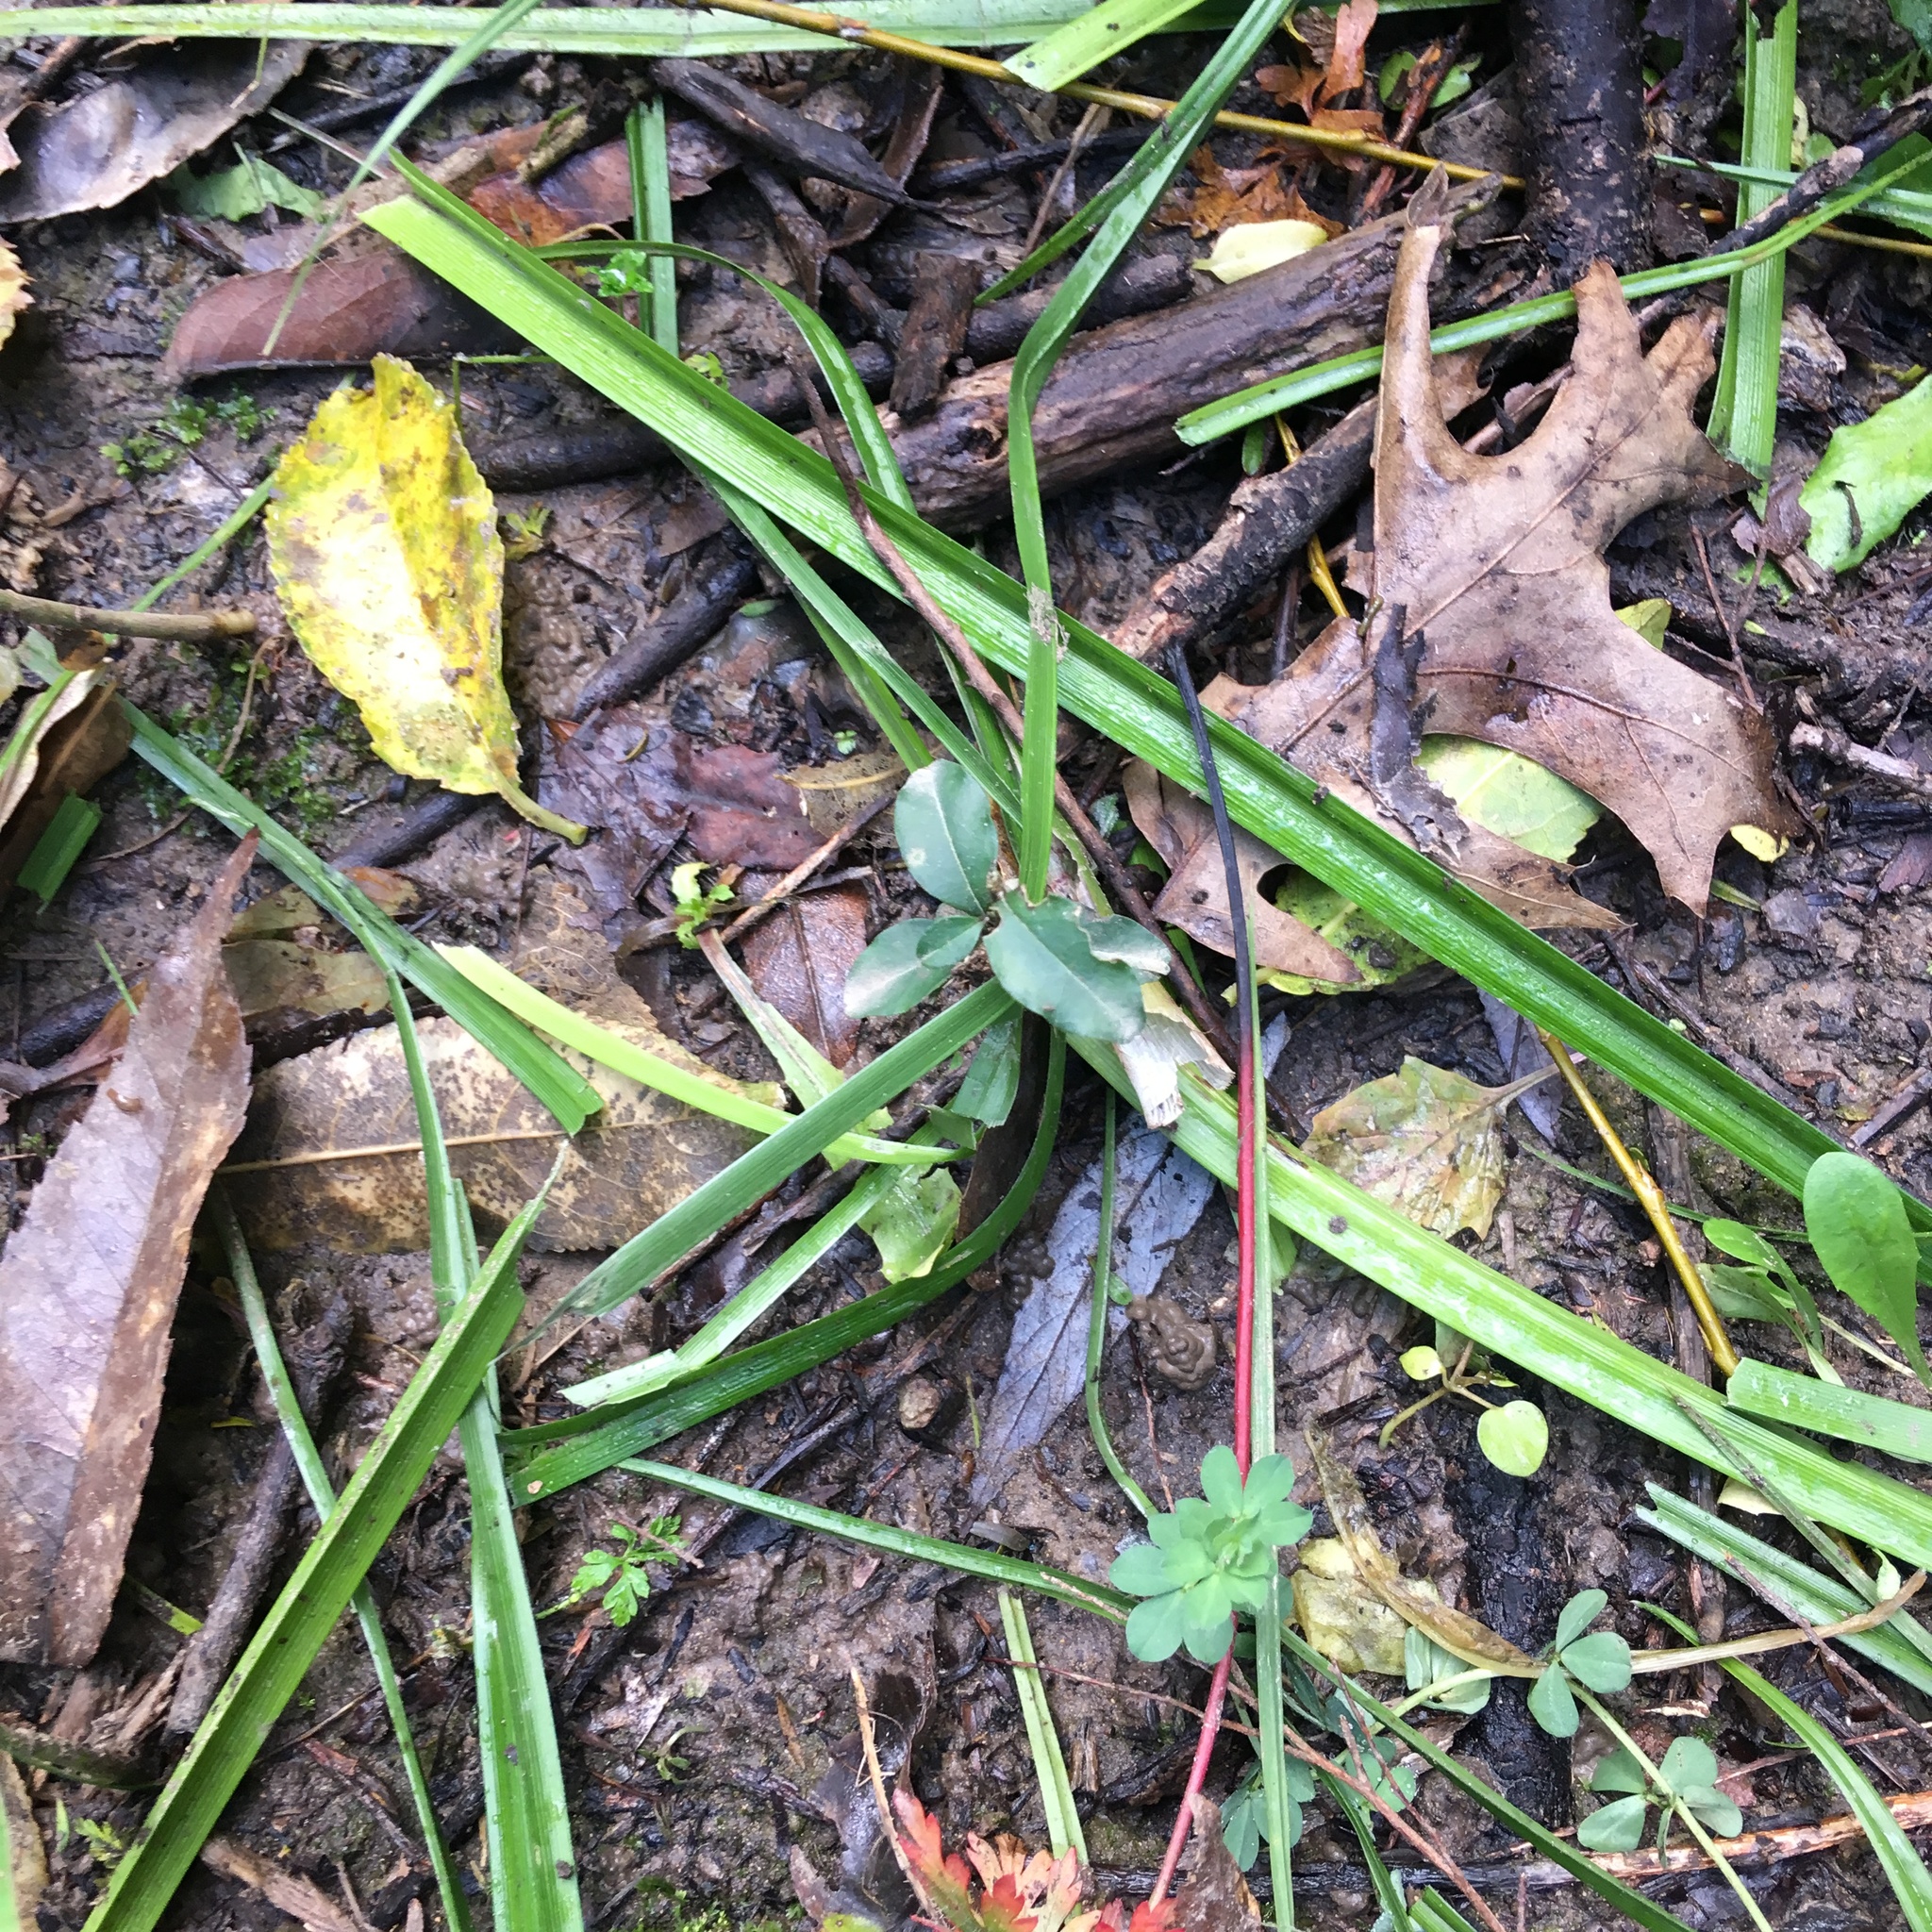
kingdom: Plantae
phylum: Tracheophyta
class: Magnoliopsida
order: Lamiales
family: Oleaceae
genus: Ligustrum
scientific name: Ligustrum sinense
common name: Chinese privet
